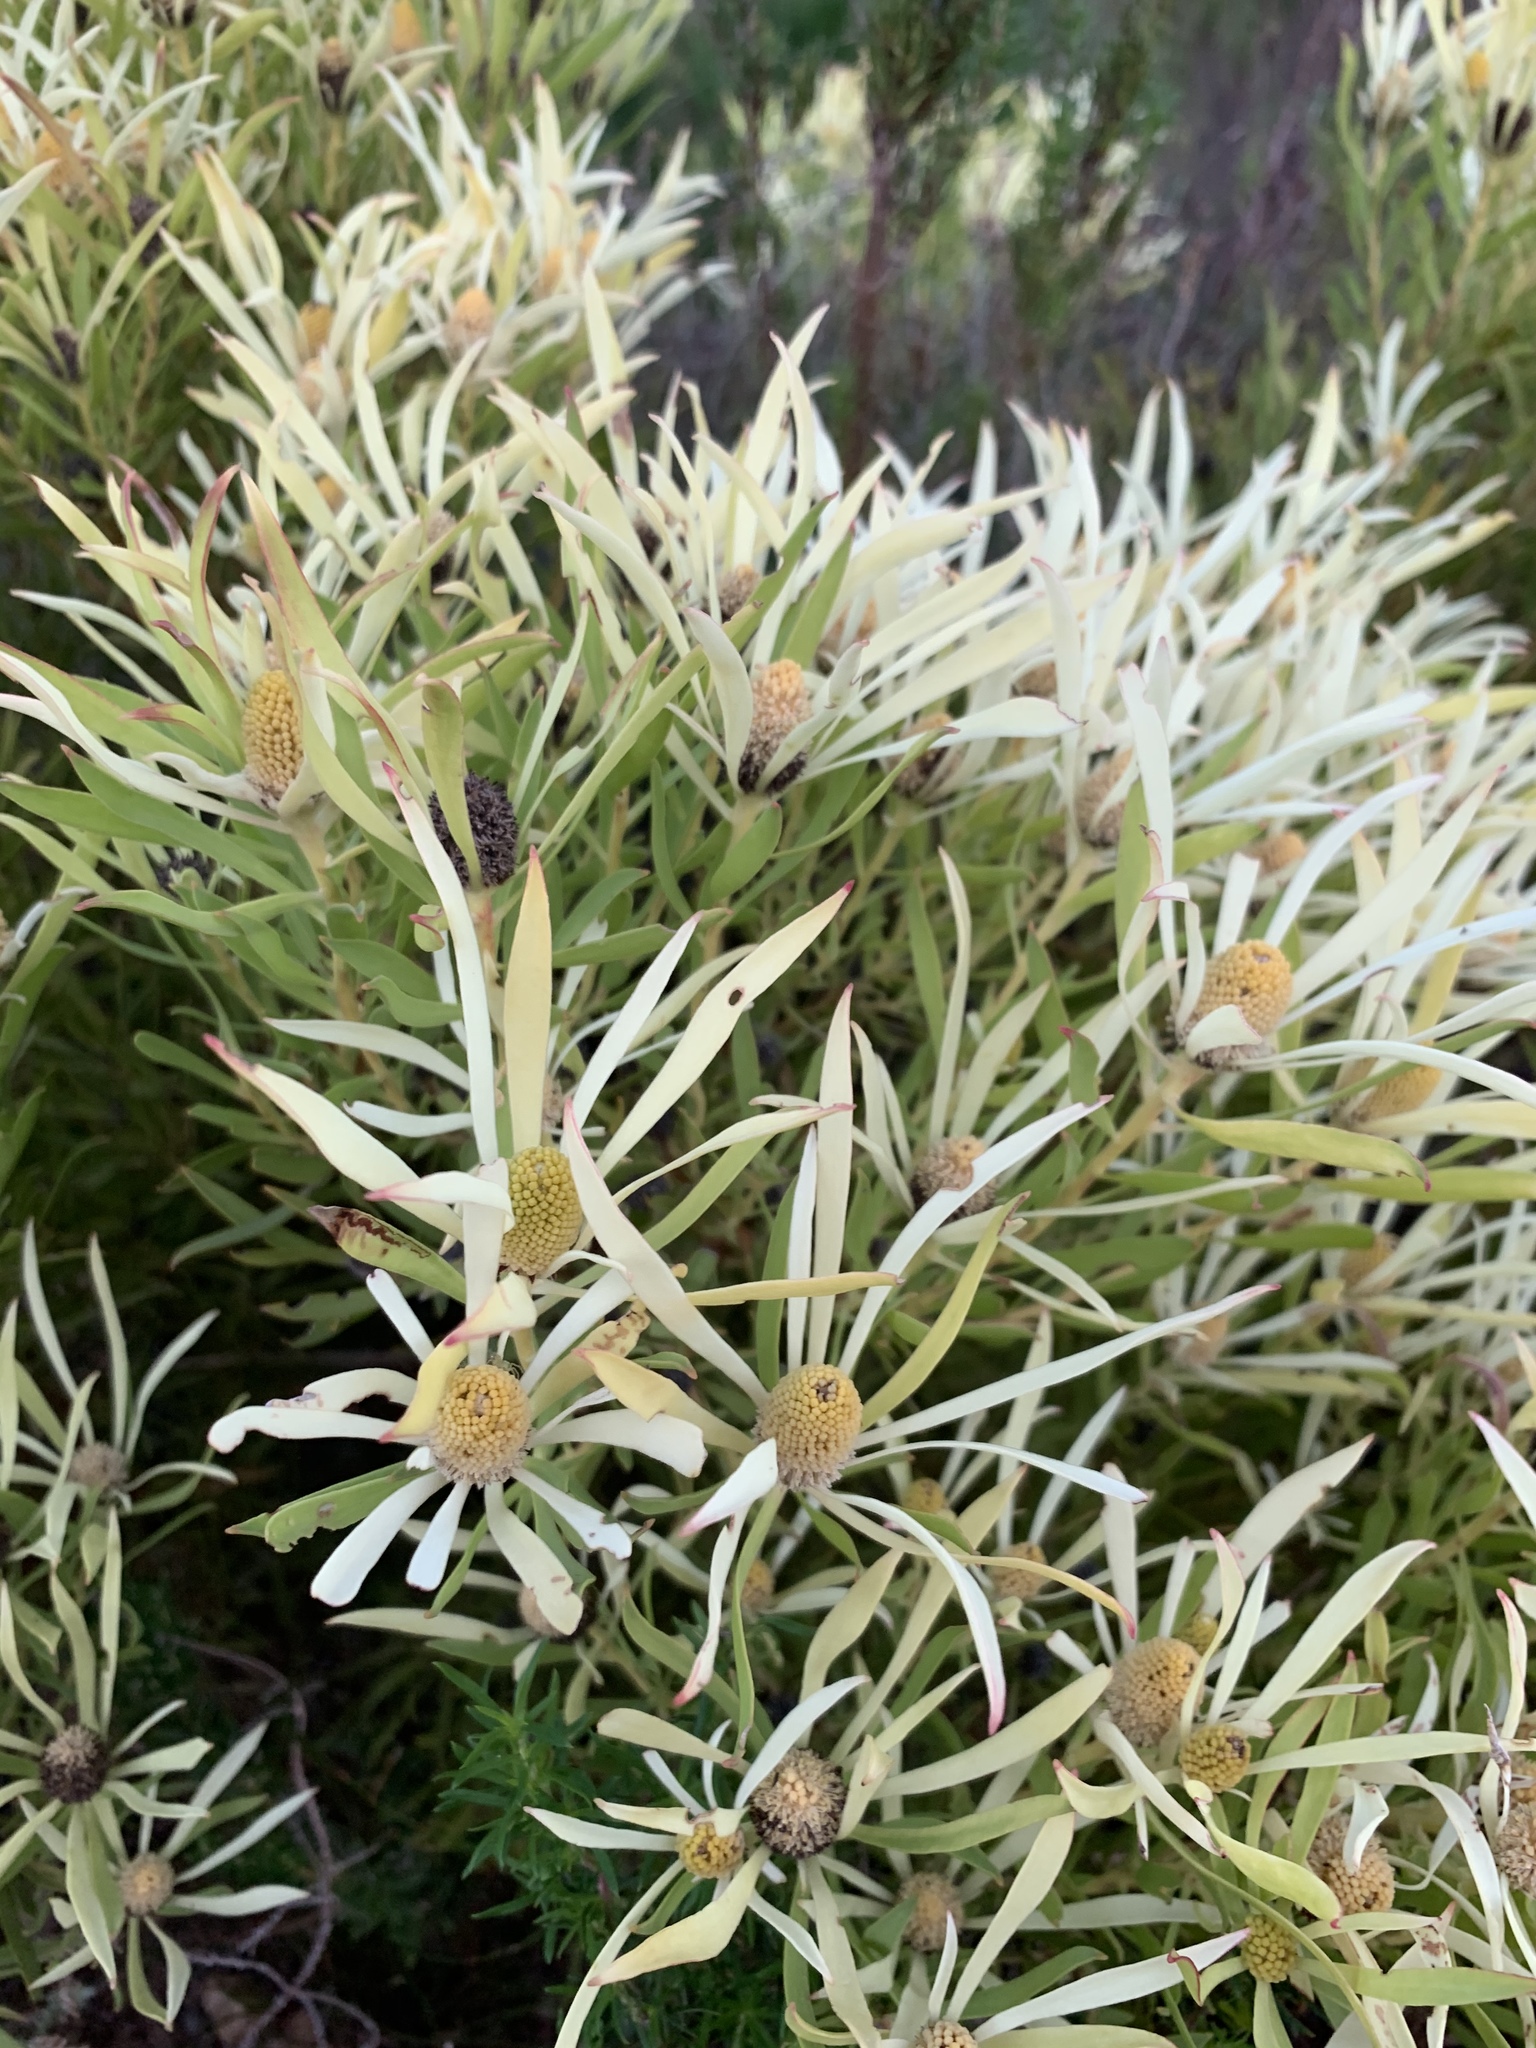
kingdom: Plantae
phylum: Tracheophyta
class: Magnoliopsida
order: Proteales
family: Proteaceae
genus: Leucadendron
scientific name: Leucadendron salignum
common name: Common sunshine conebush
